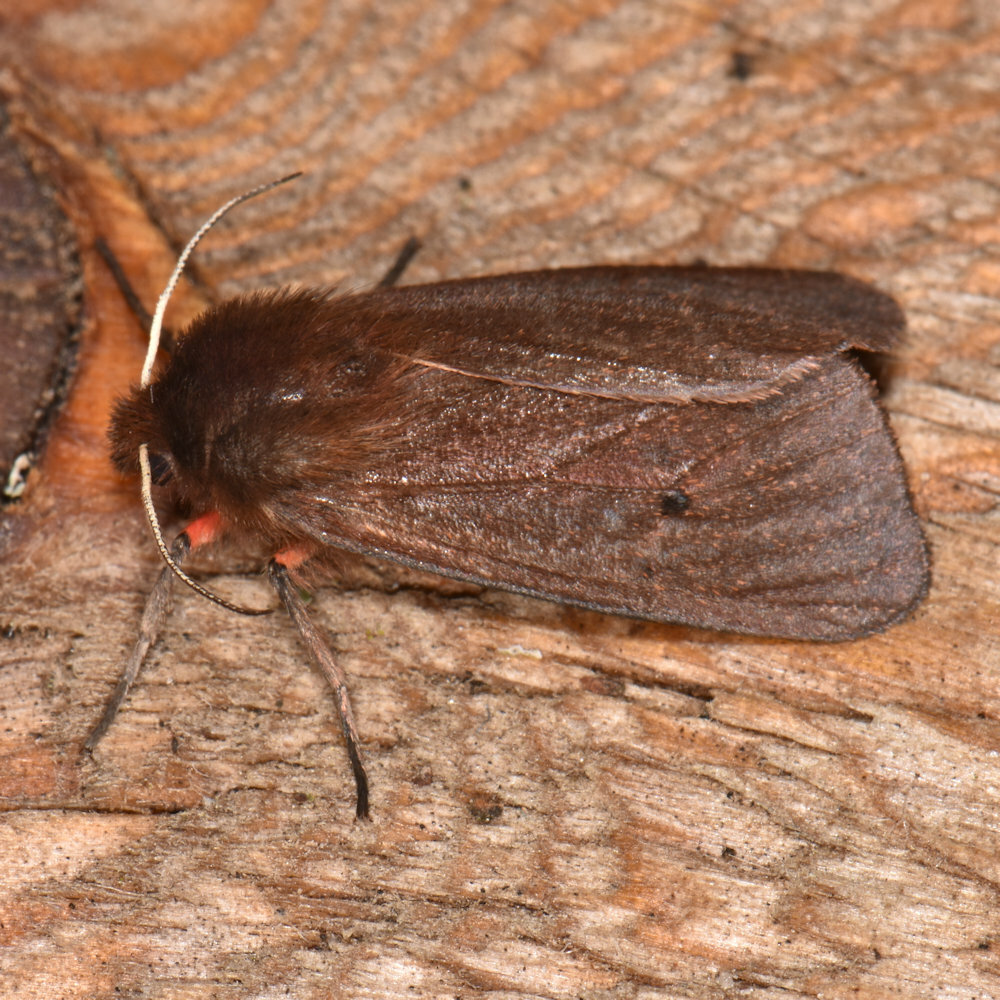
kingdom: Animalia
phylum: Arthropoda
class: Insecta
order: Lepidoptera
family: Erebidae
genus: Phragmatobia
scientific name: Phragmatobia fuliginosa
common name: Ruby tiger
